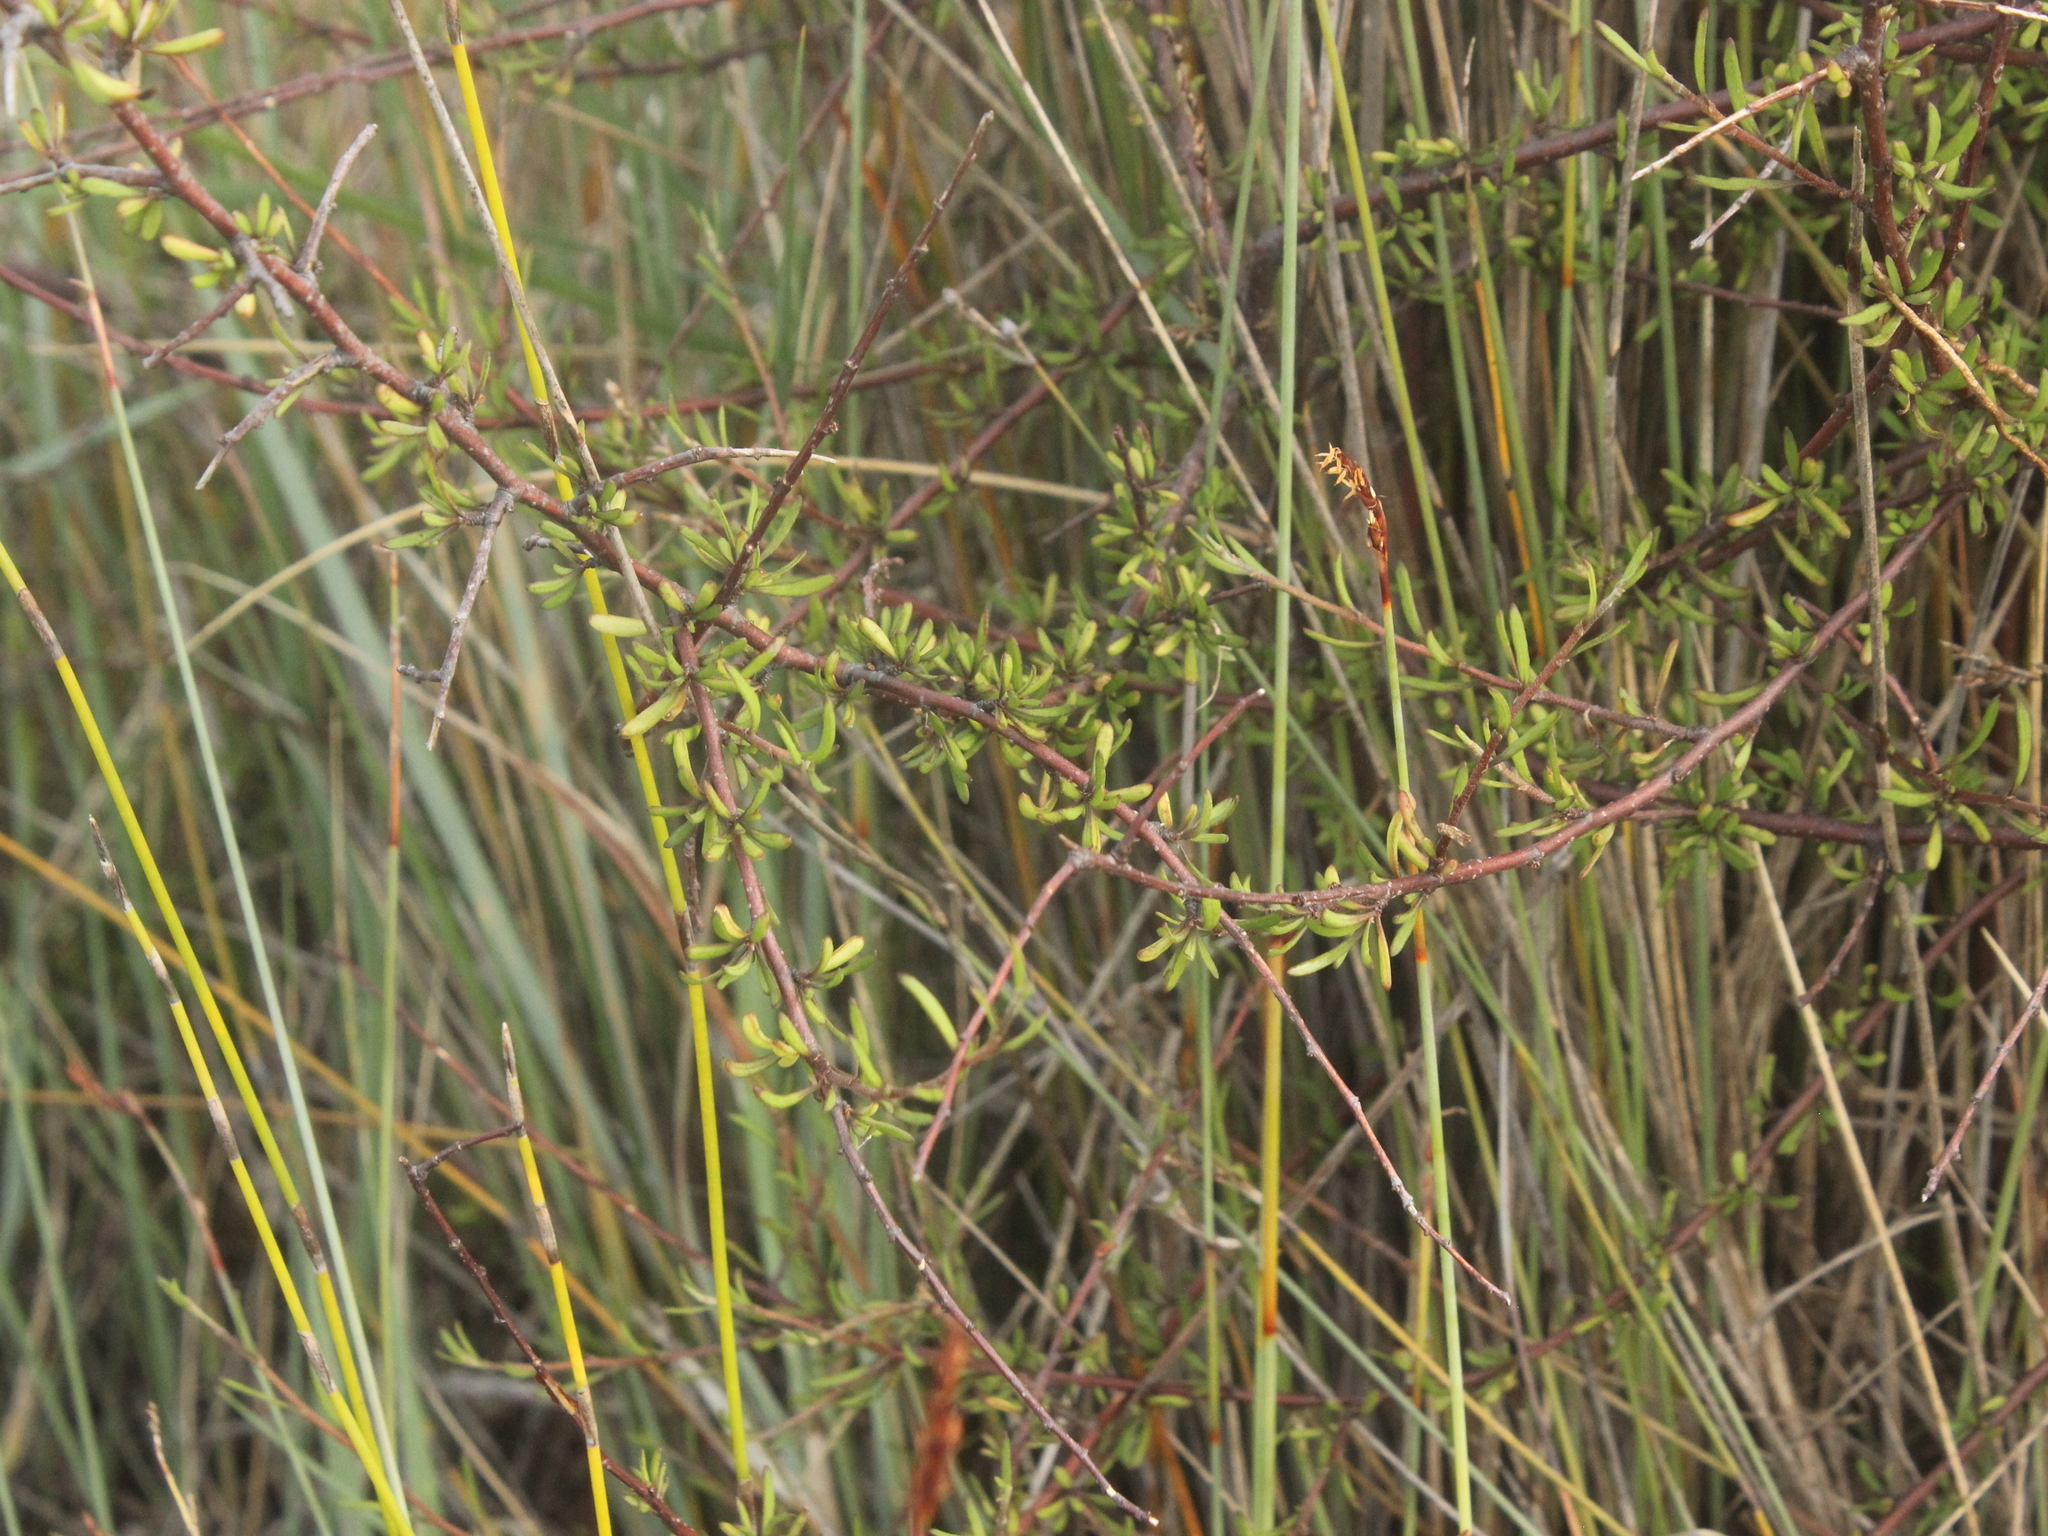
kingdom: Plantae
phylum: Tracheophyta
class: Magnoliopsida
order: Malvales
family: Malvaceae
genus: Plagianthus
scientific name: Plagianthus divaricatus
